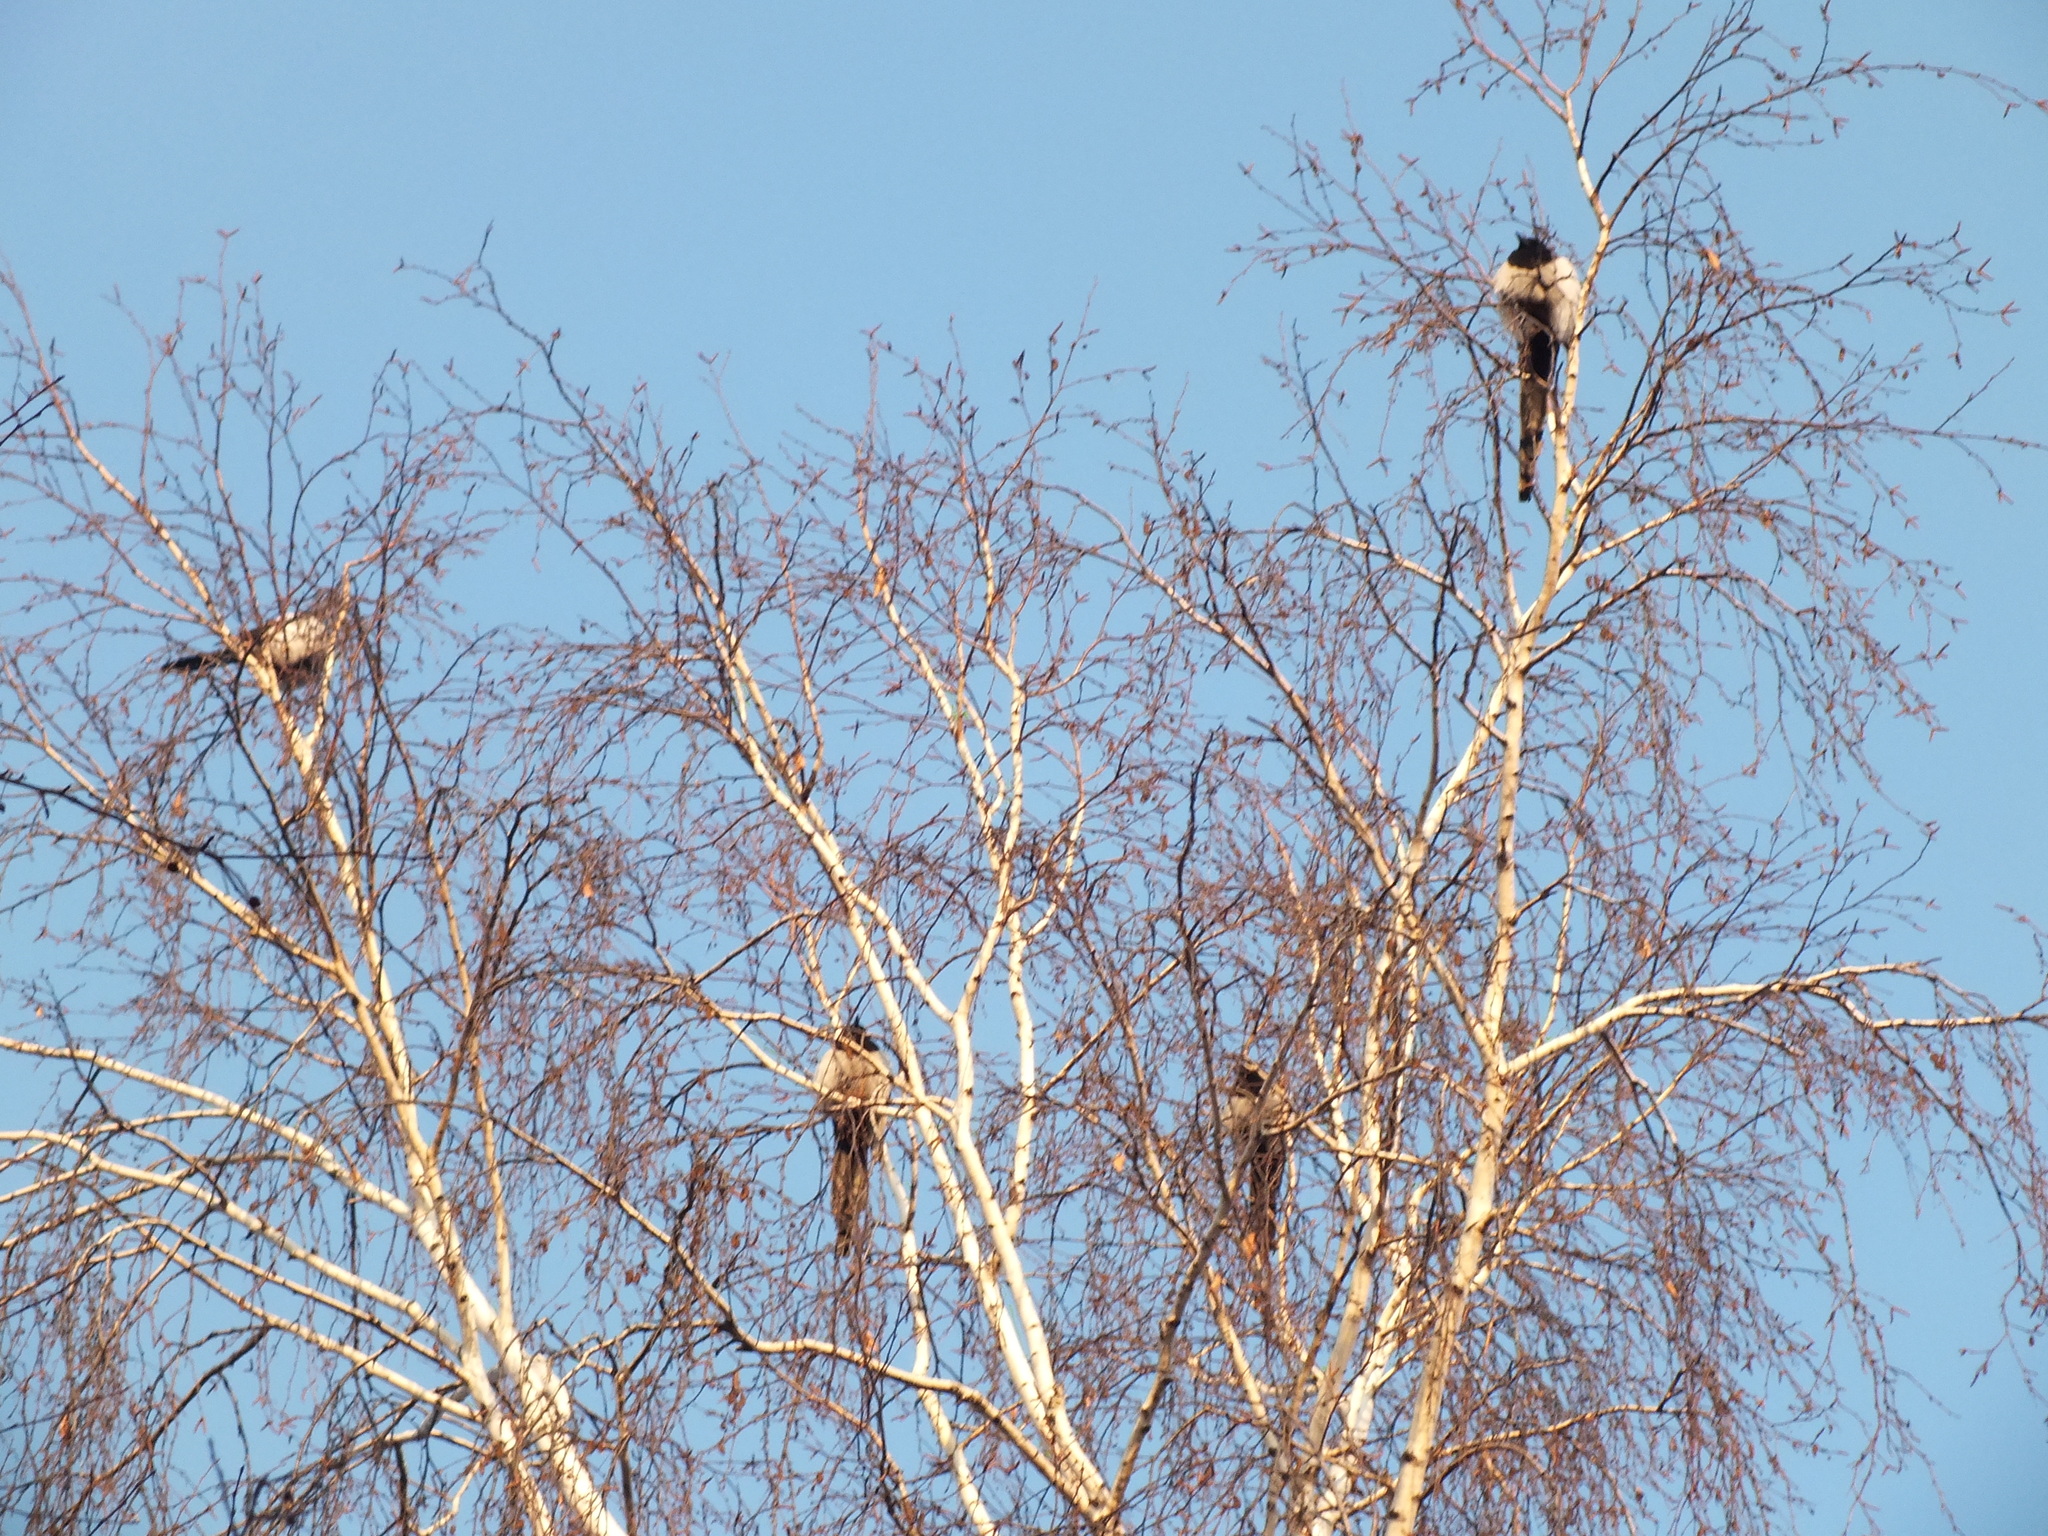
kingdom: Animalia
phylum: Chordata
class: Aves
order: Passeriformes
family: Corvidae
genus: Pica
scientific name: Pica pica
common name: Eurasian magpie
